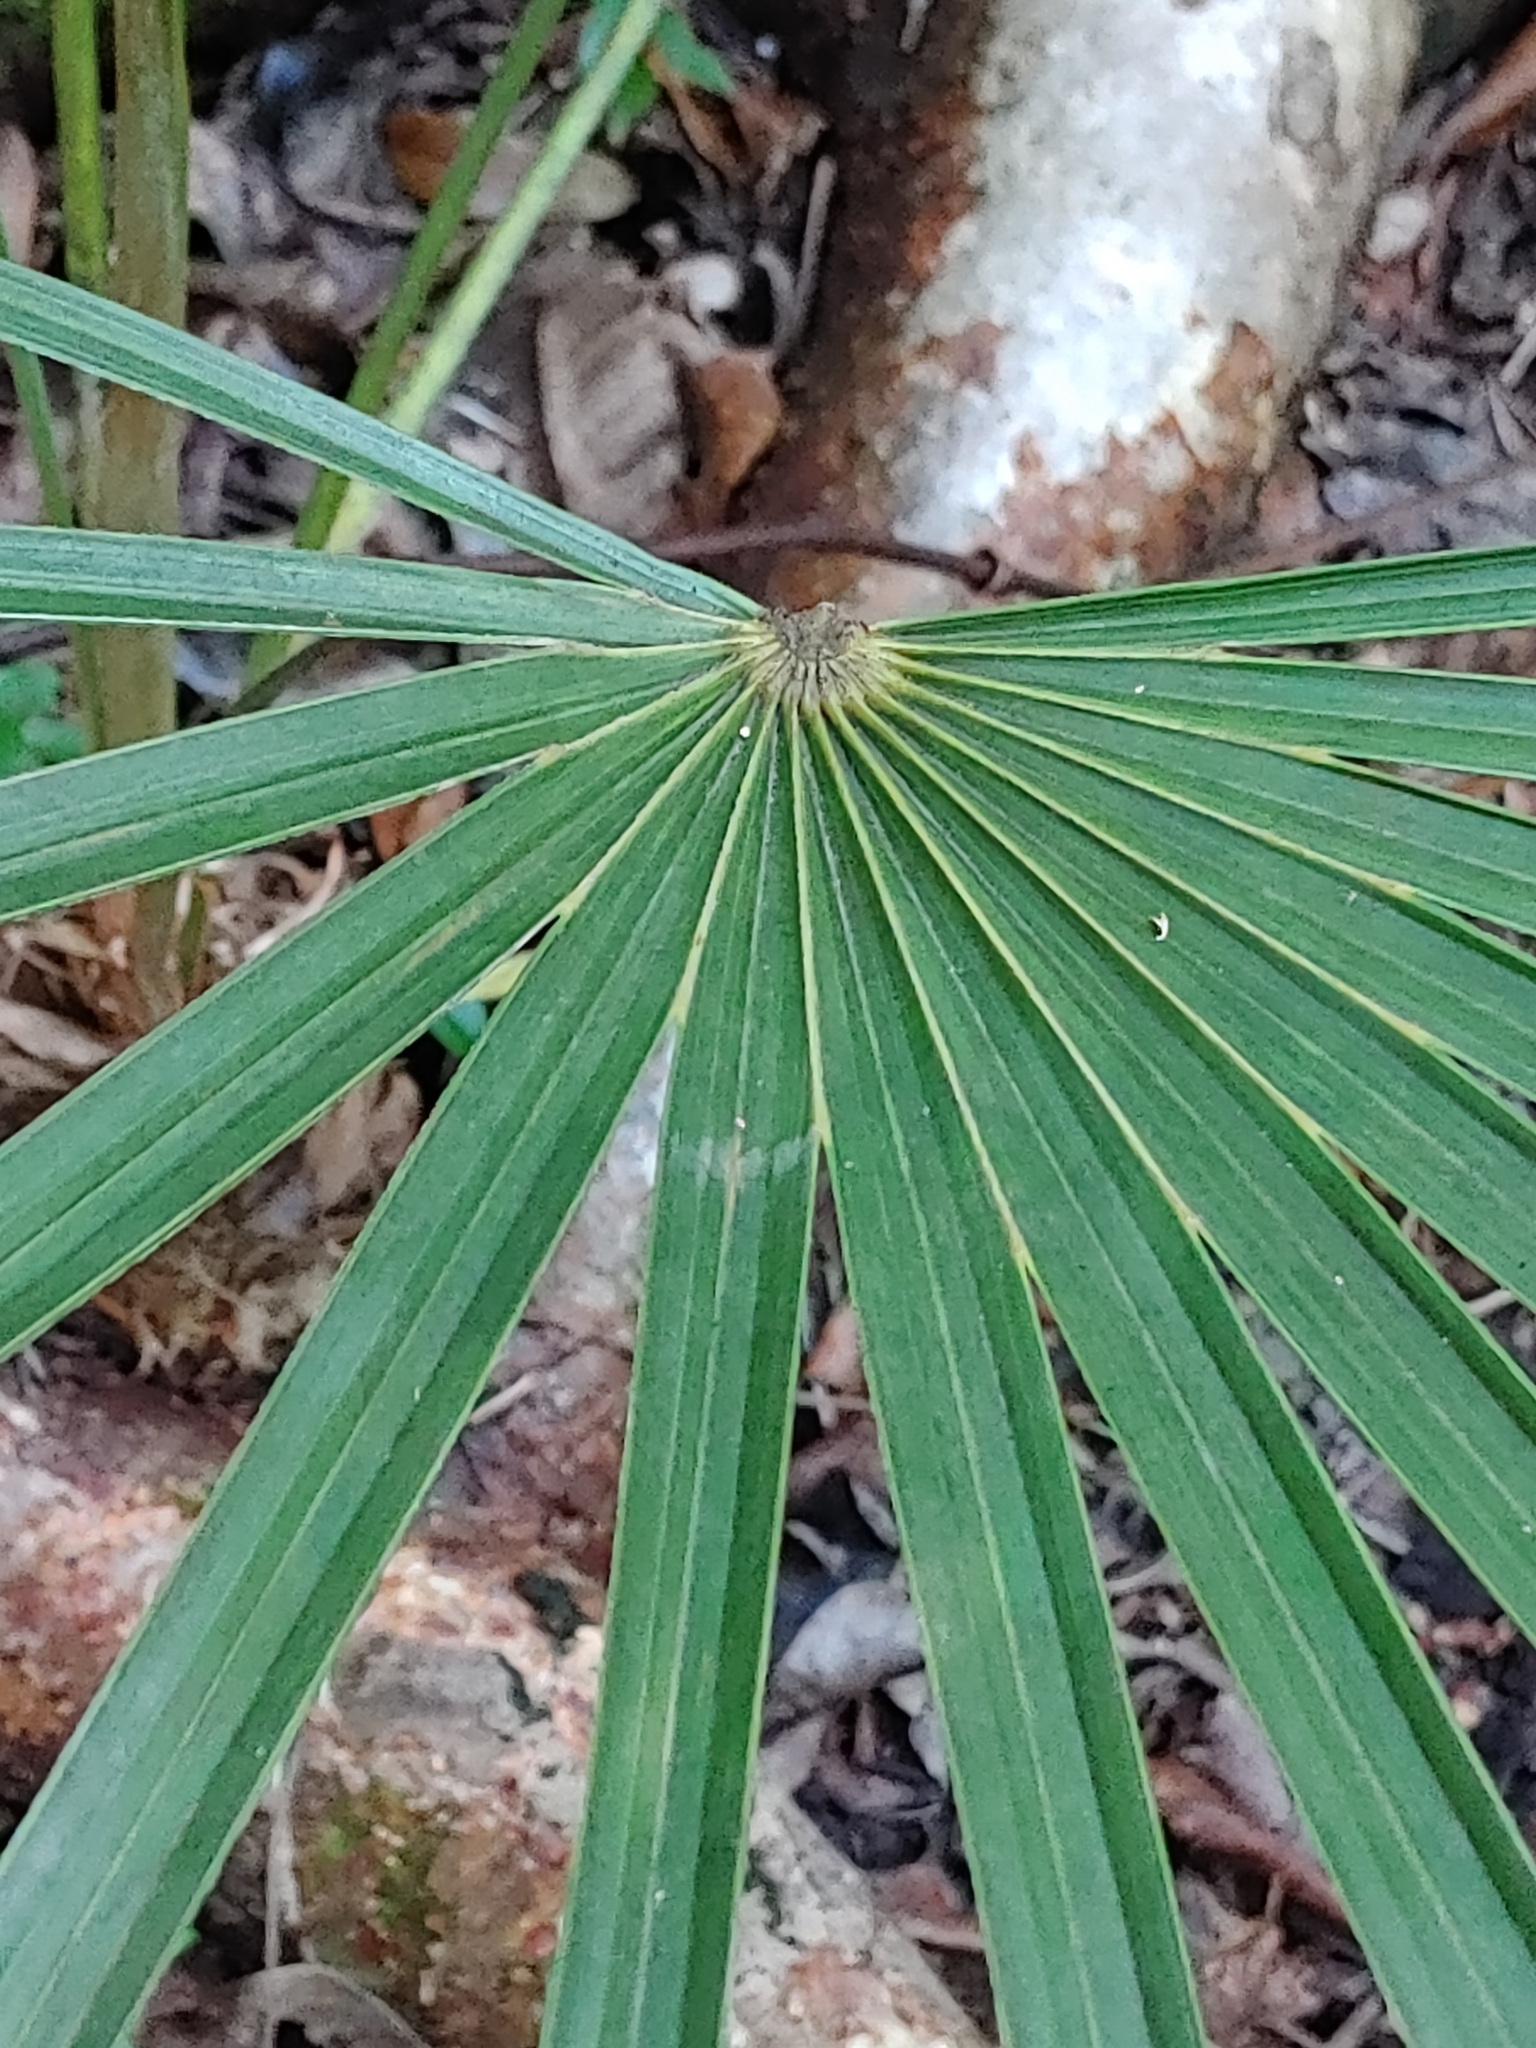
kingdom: Plantae
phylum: Tracheophyta
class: Liliopsida
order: Arecales
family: Arecaceae
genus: Coccothrinax
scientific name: Coccothrinax argentata
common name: Florida silver palm
